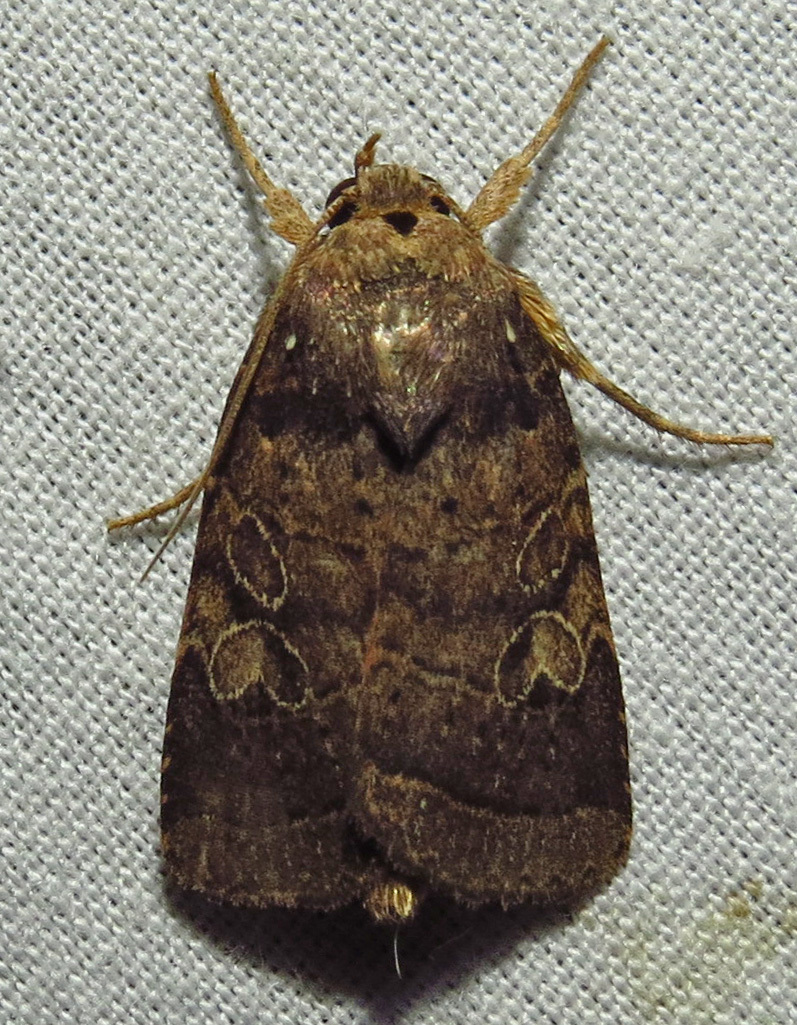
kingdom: Animalia
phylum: Arthropoda
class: Insecta
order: Lepidoptera
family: Noctuidae
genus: Orthodes
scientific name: Orthodes furtiva
